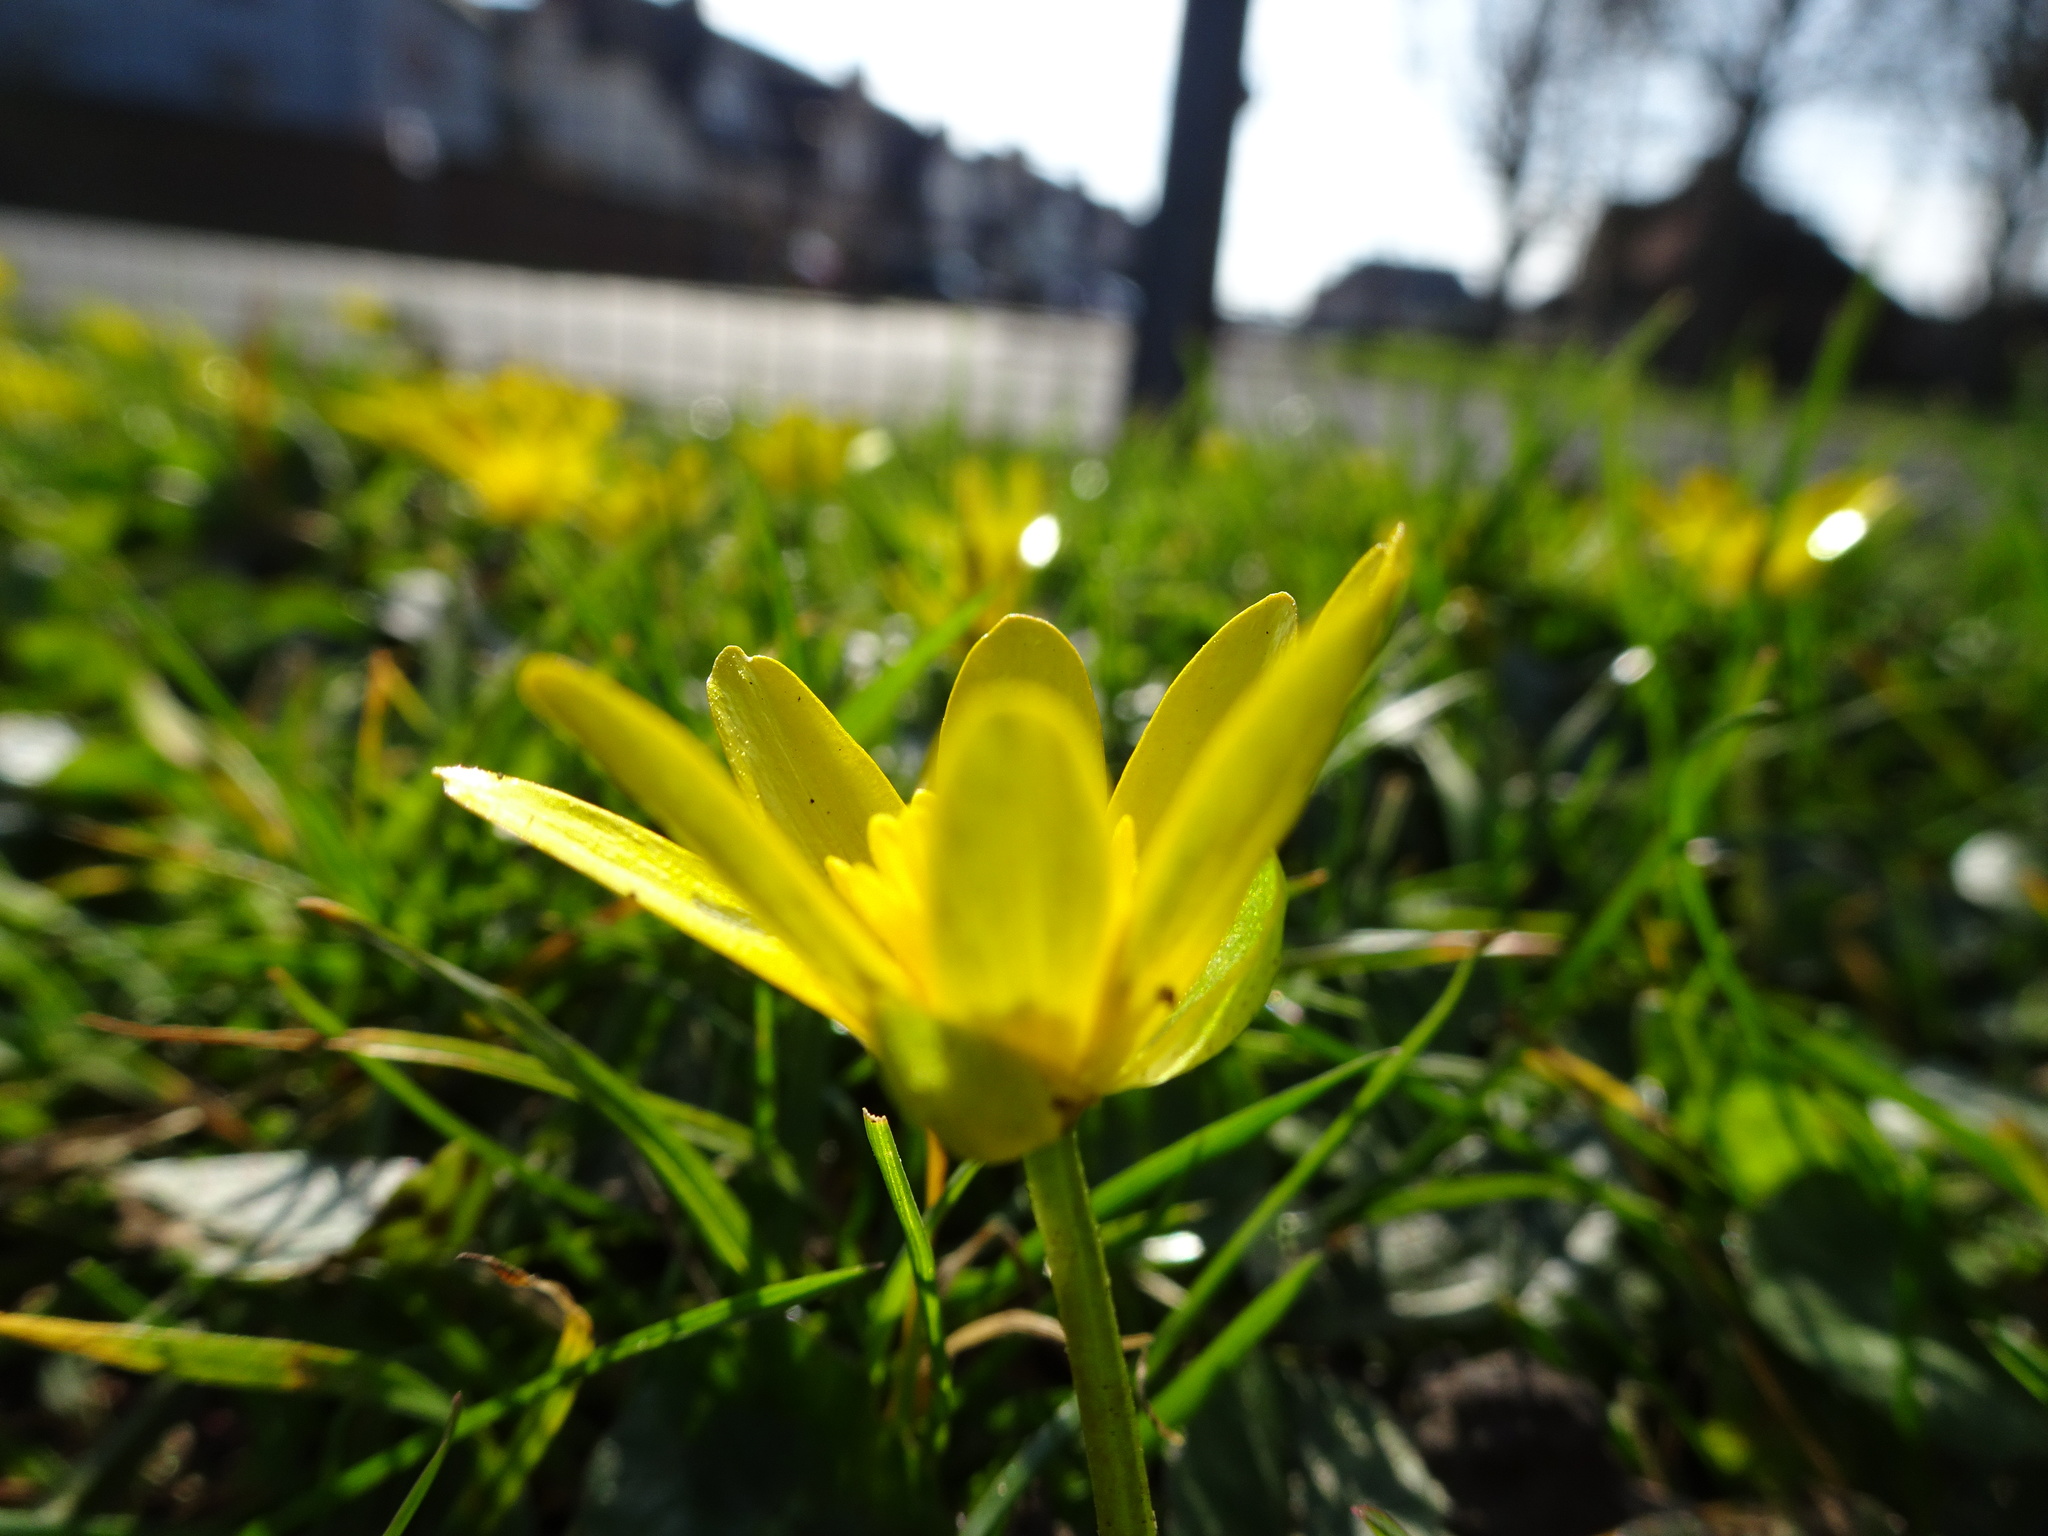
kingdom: Plantae
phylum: Tracheophyta
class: Magnoliopsida
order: Ranunculales
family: Ranunculaceae
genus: Ficaria
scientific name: Ficaria verna
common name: Lesser celandine
